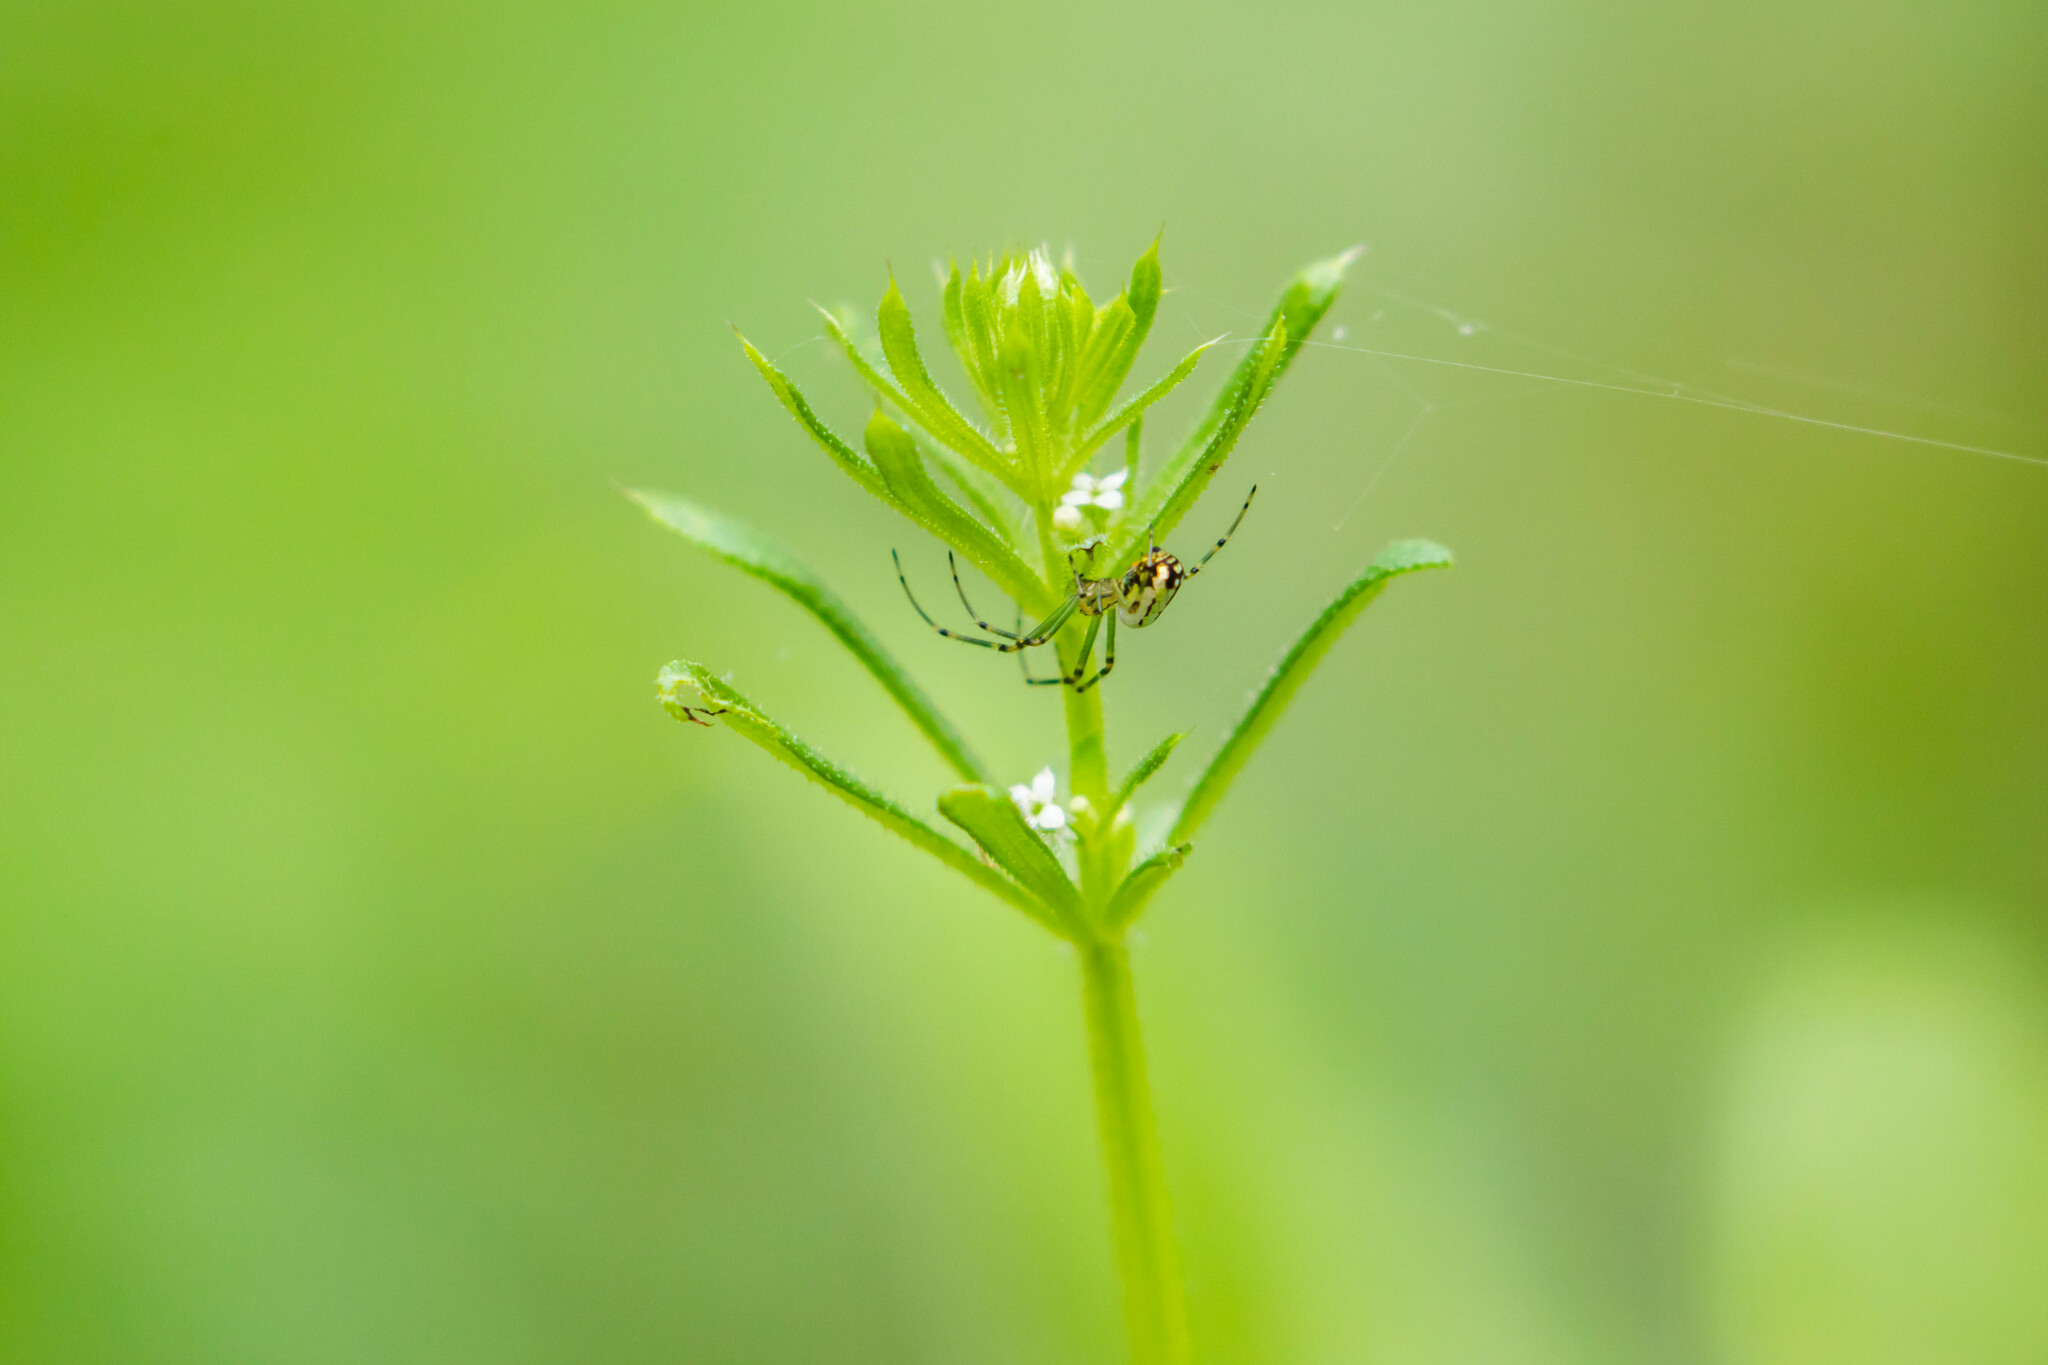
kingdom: Animalia
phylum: Arthropoda
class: Arachnida
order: Araneae
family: Tetragnathidae
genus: Leucauge
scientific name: Leucauge venusta
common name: Longjawed orb weavers
